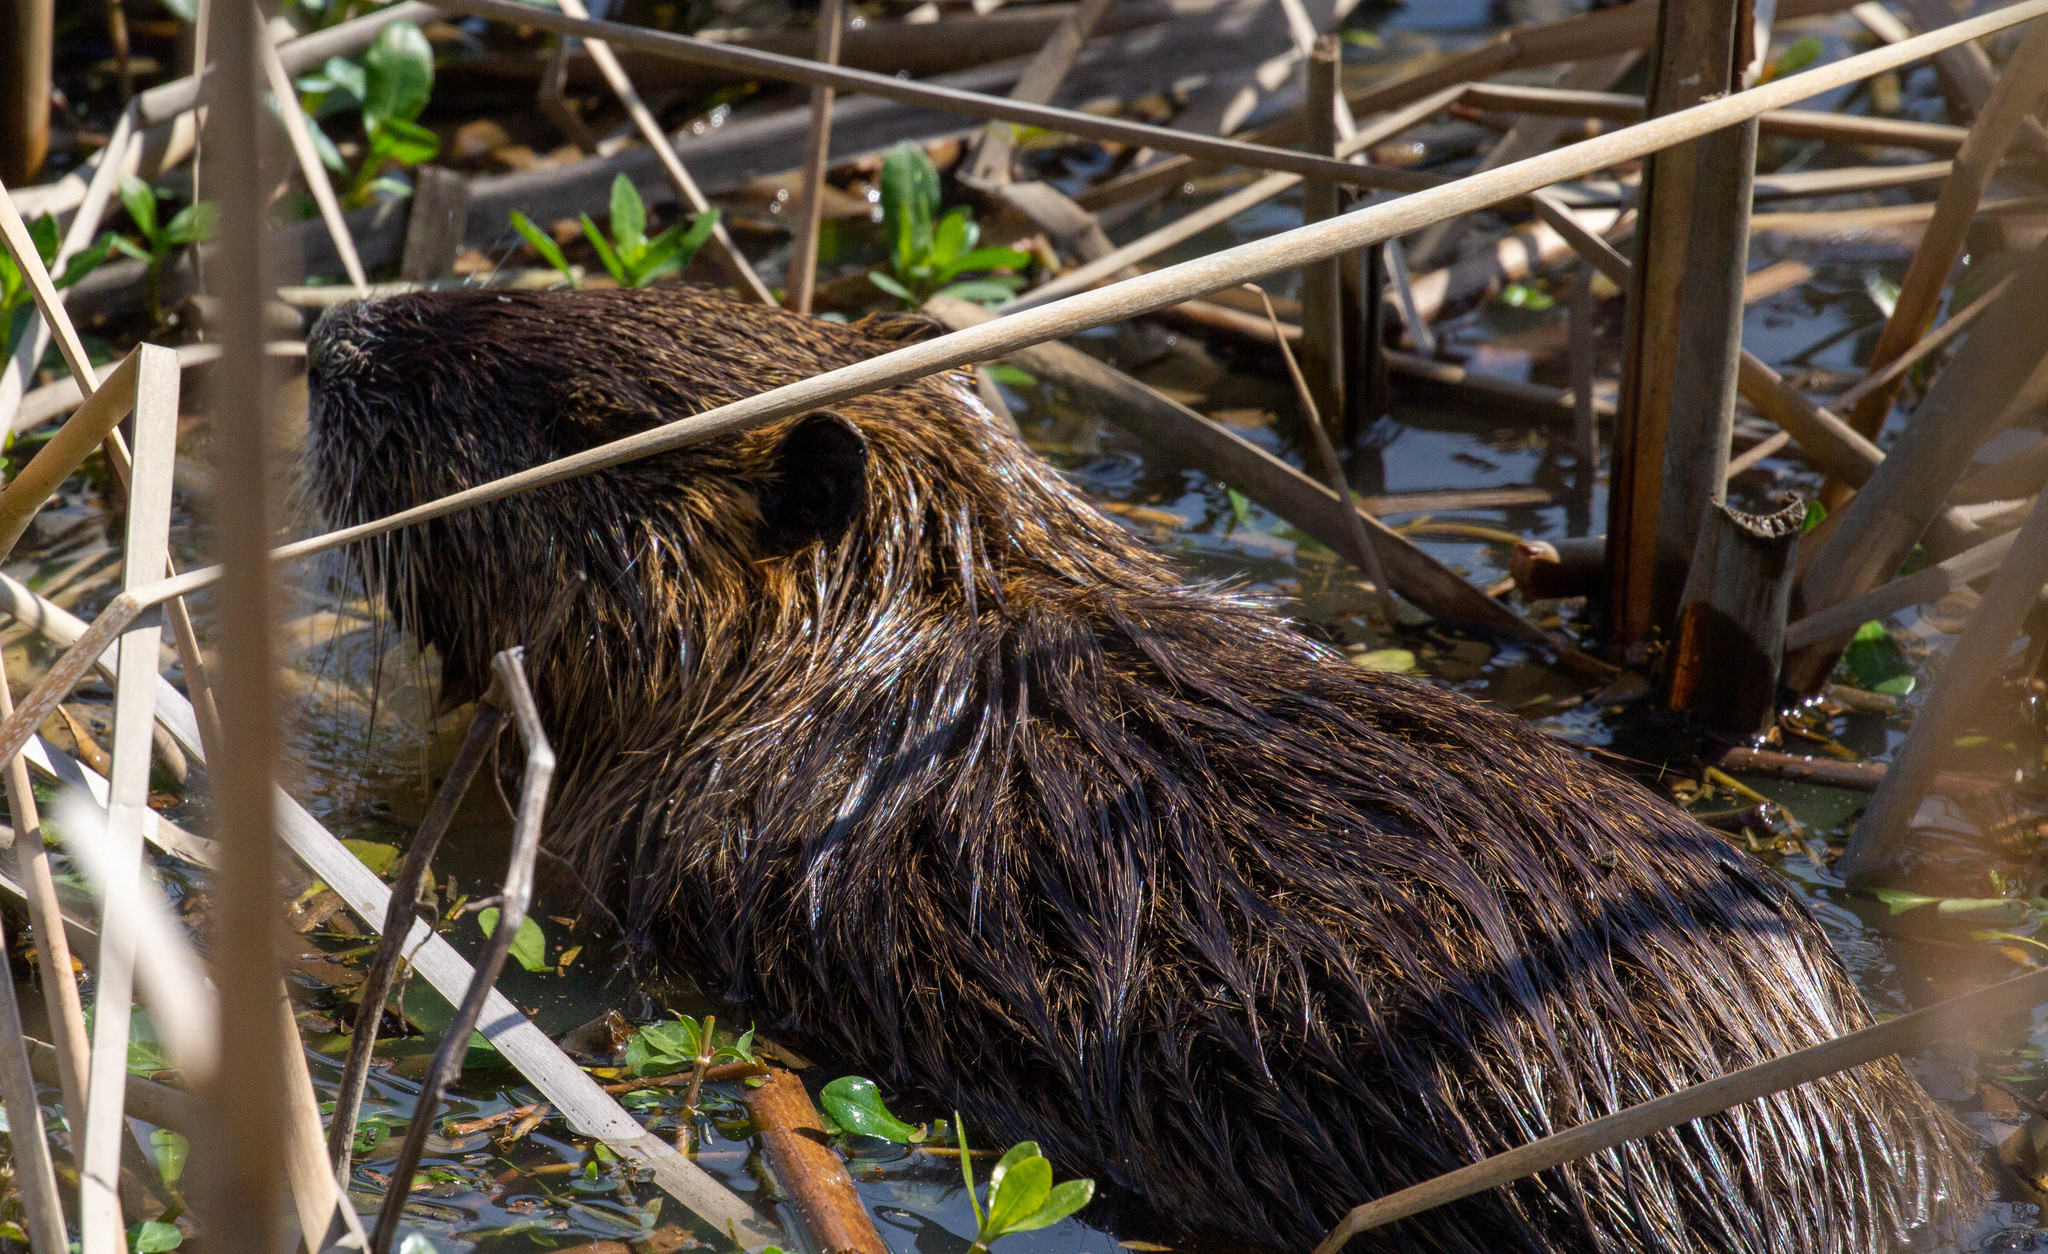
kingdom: Animalia
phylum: Chordata
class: Mammalia
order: Rodentia
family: Myocastoridae
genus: Myocastor
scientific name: Myocastor coypus
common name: Coypu
